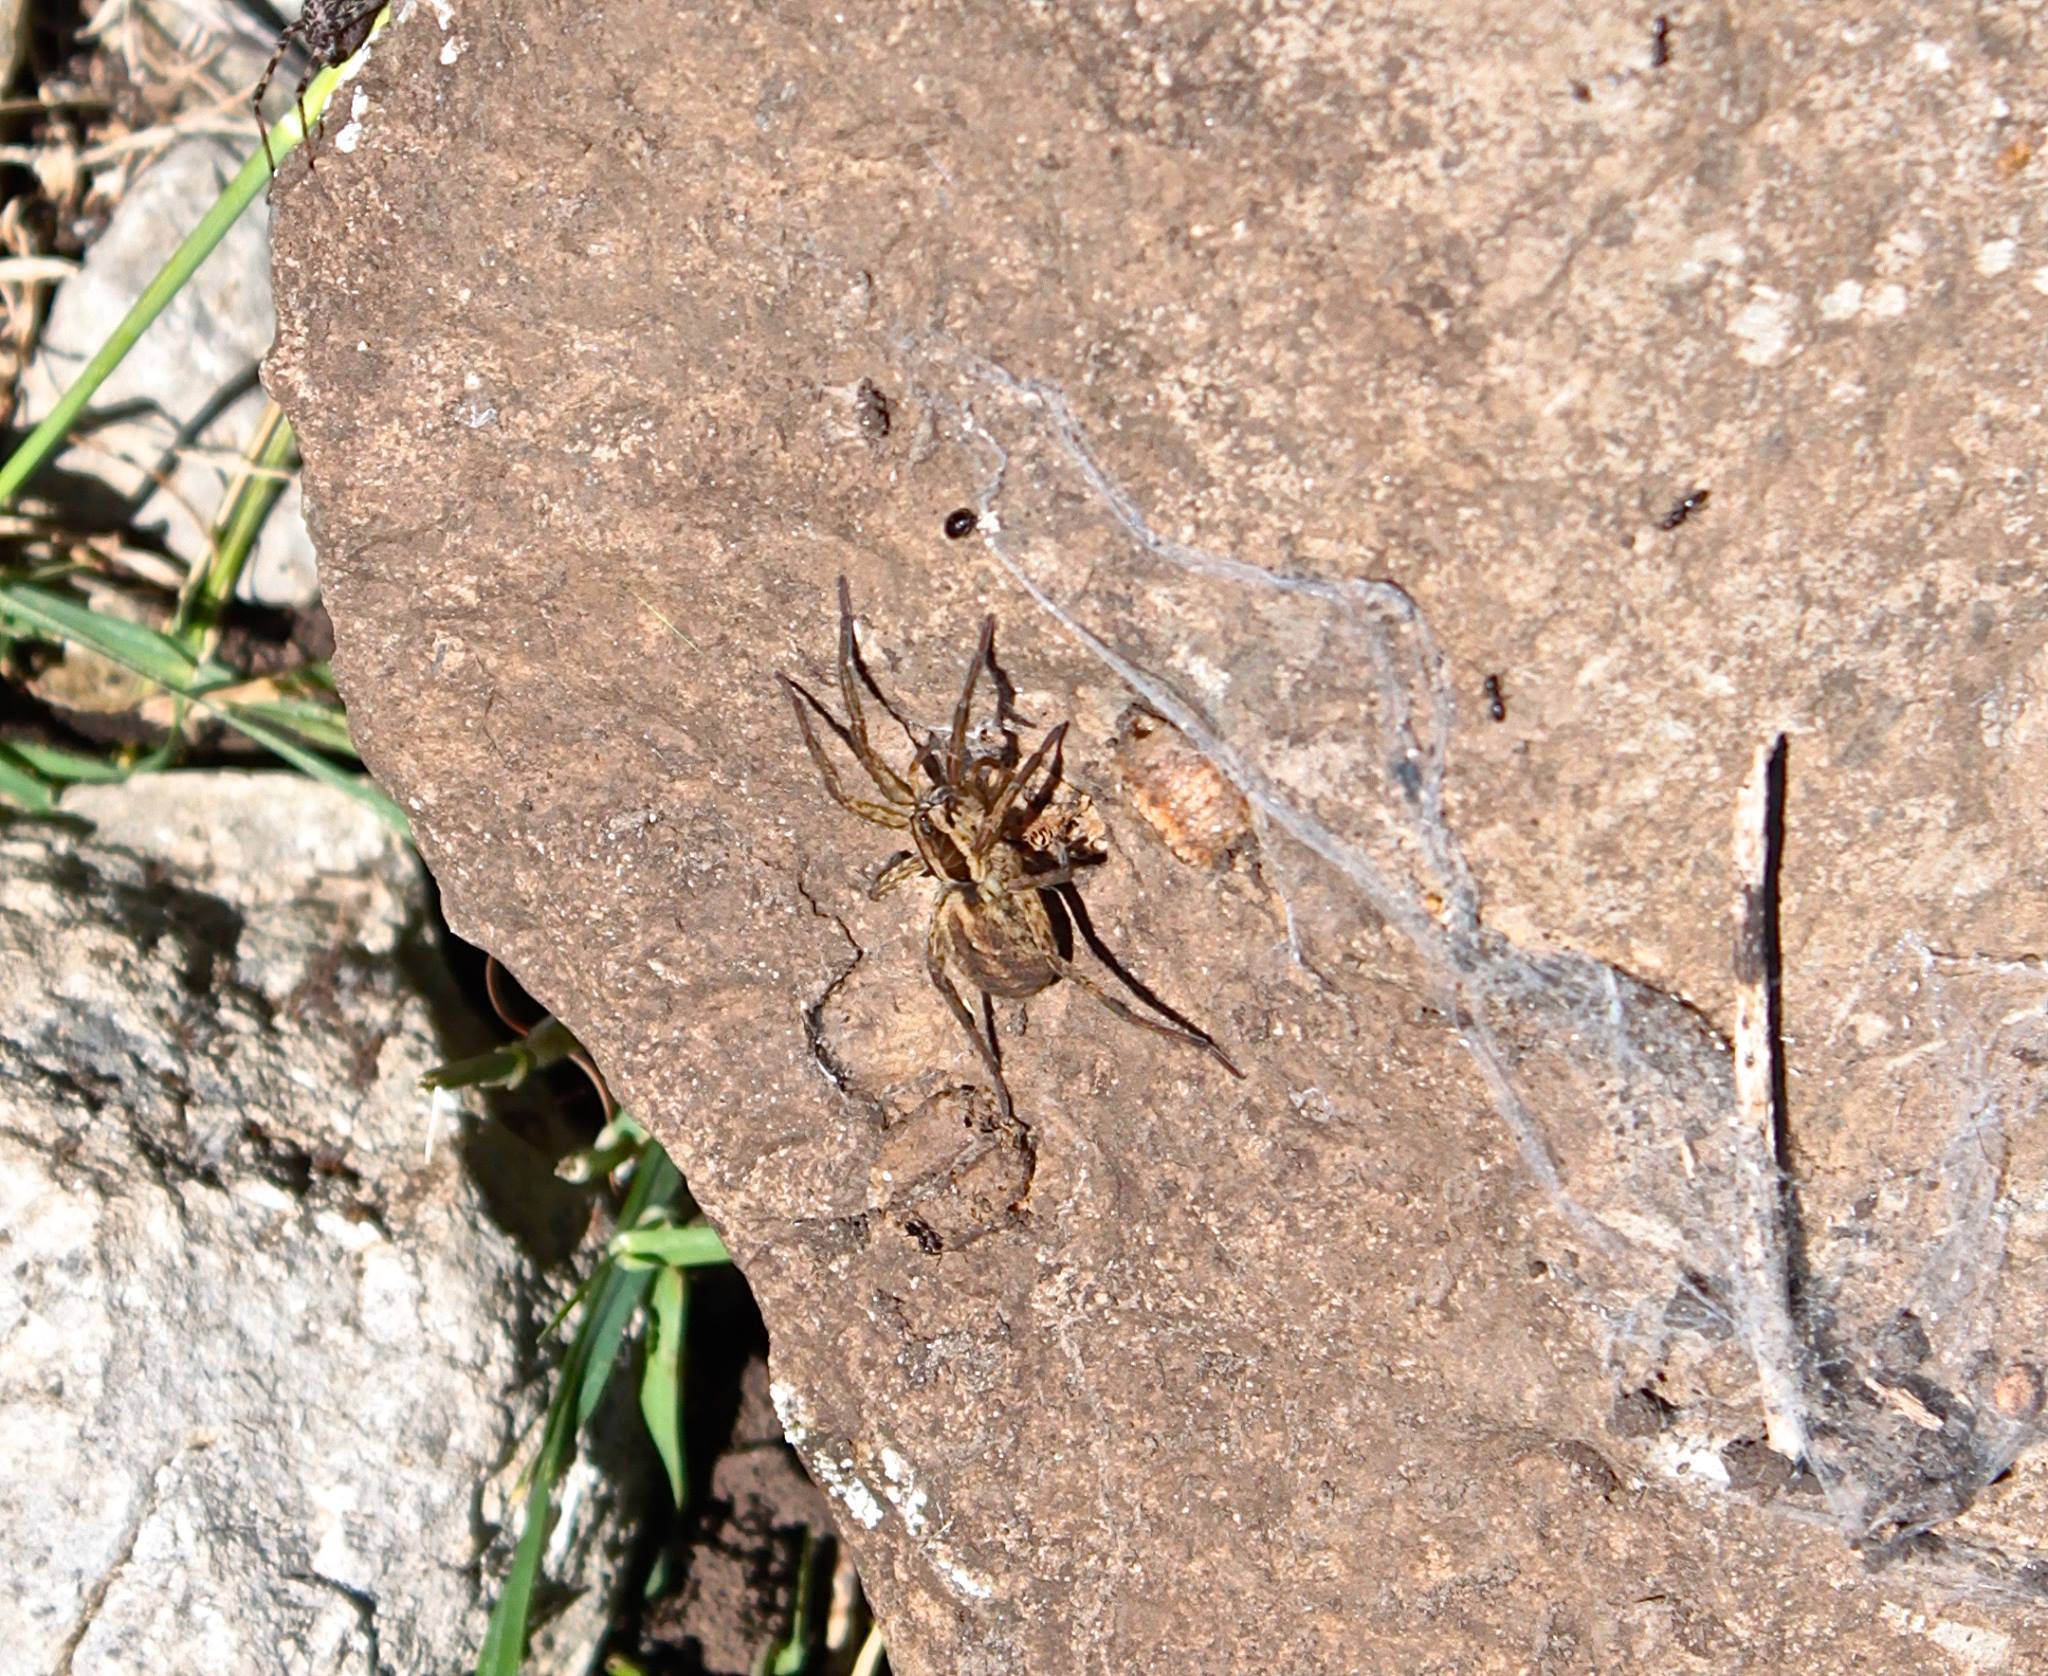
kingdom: Animalia
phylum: Arthropoda
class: Arachnida
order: Araneae
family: Lycosidae
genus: Hogna
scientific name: Hogna radiata
